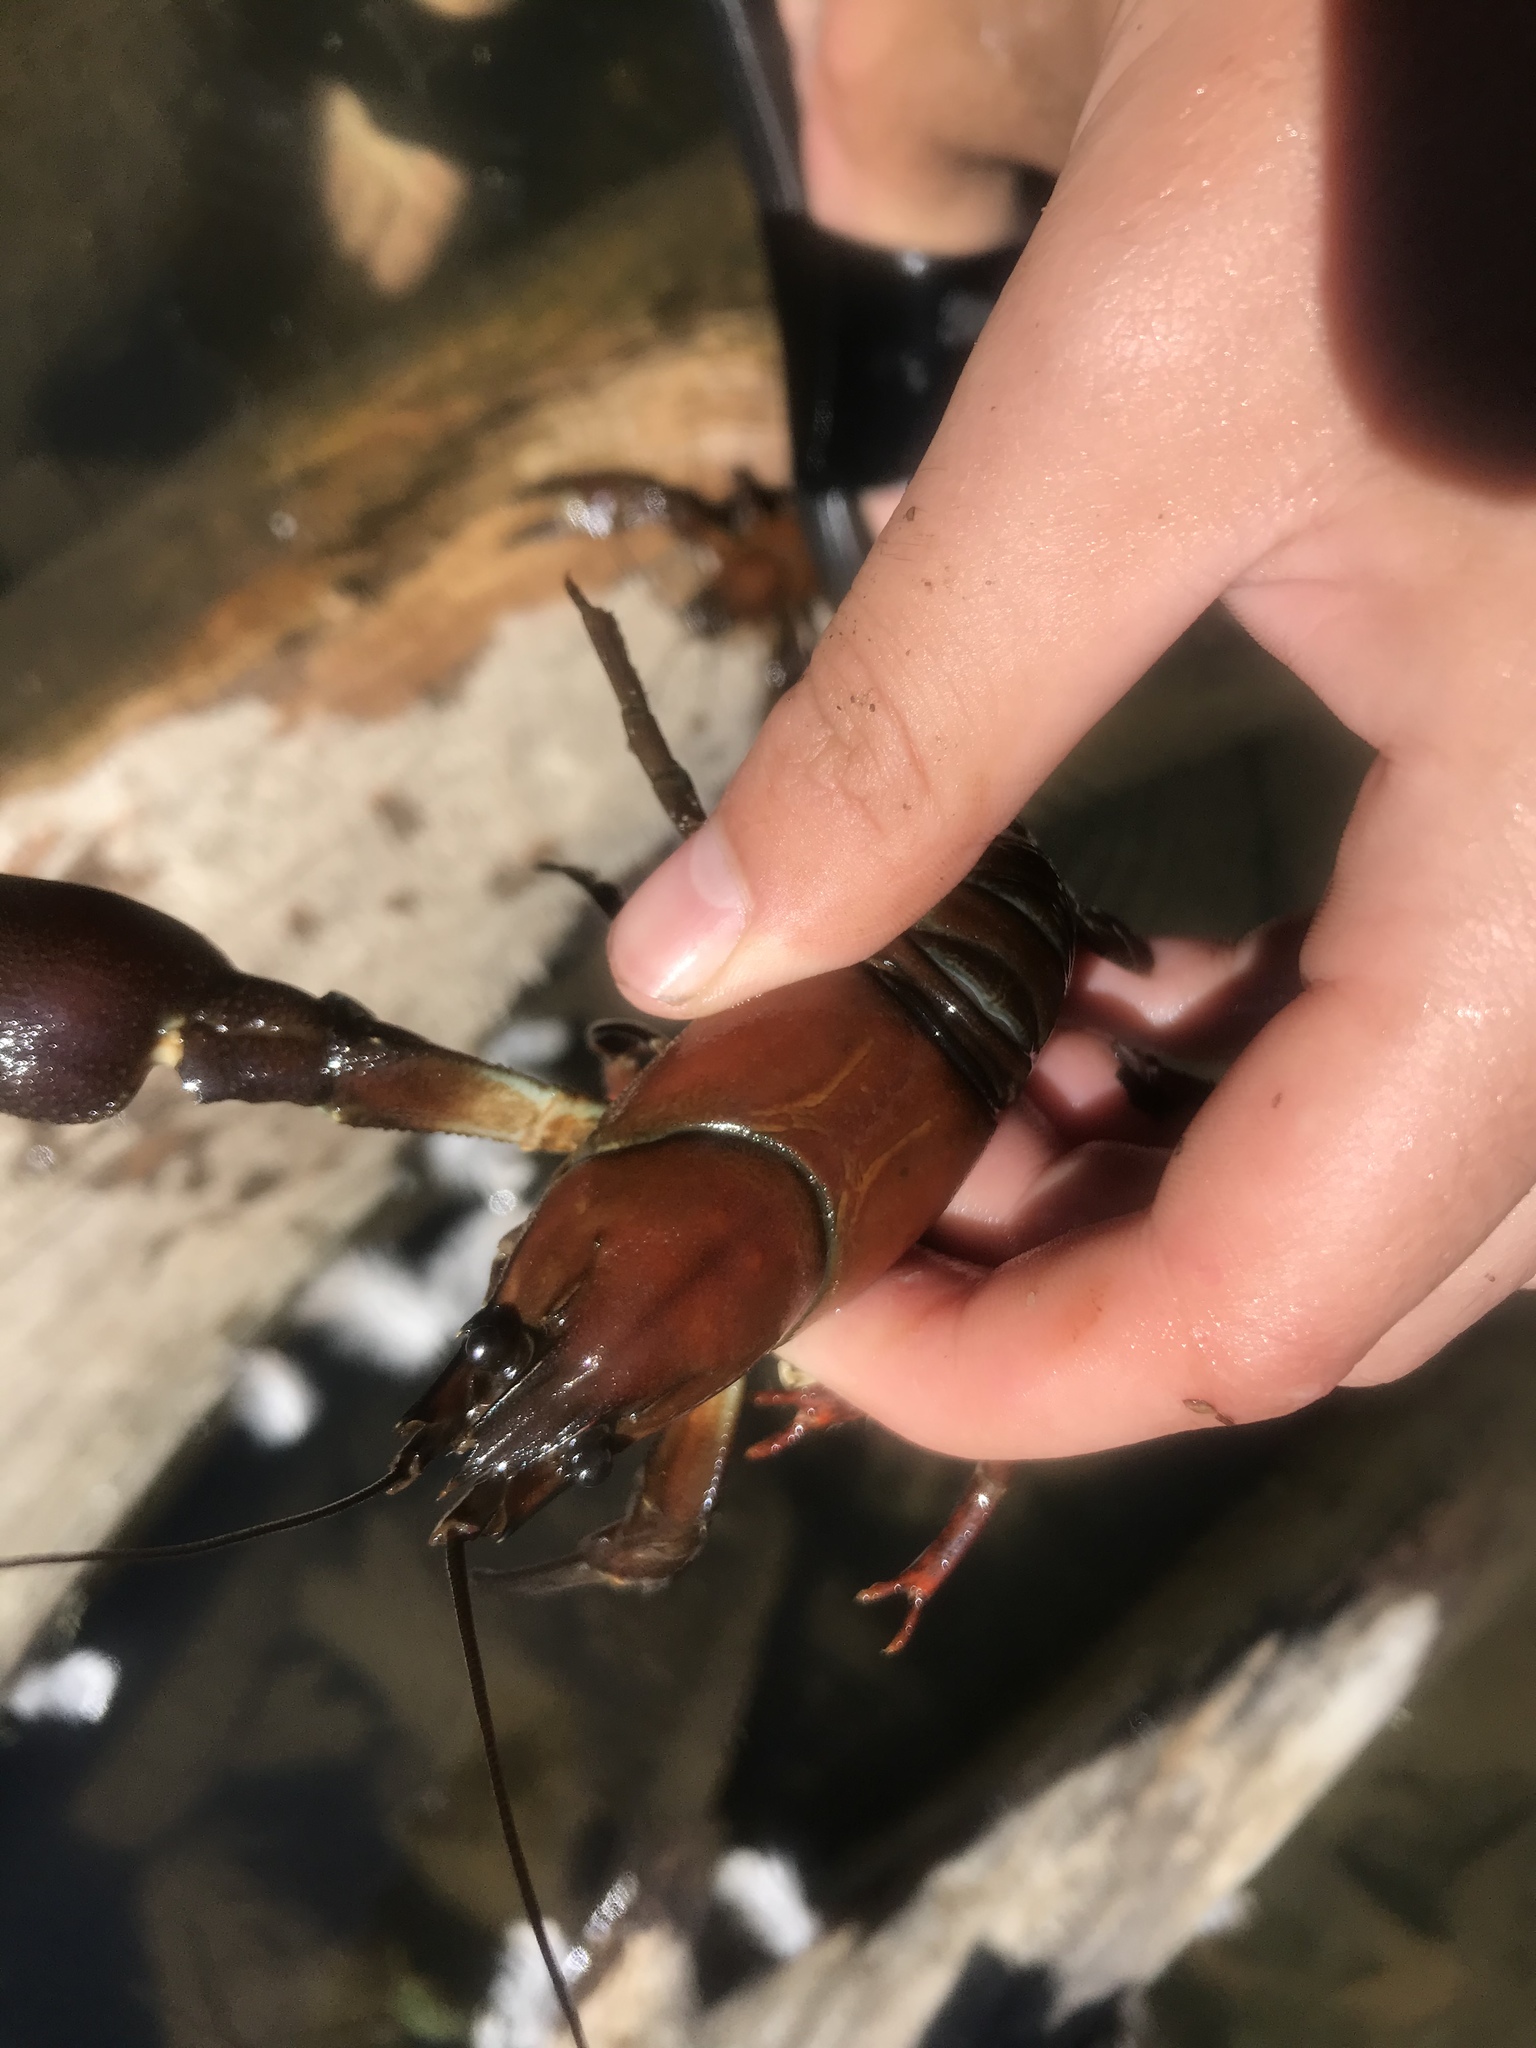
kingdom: Animalia
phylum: Arthropoda
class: Malacostraca
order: Decapoda
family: Astacidae
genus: Pacifastacus
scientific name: Pacifastacus leniusculus
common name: Signal crayfish
